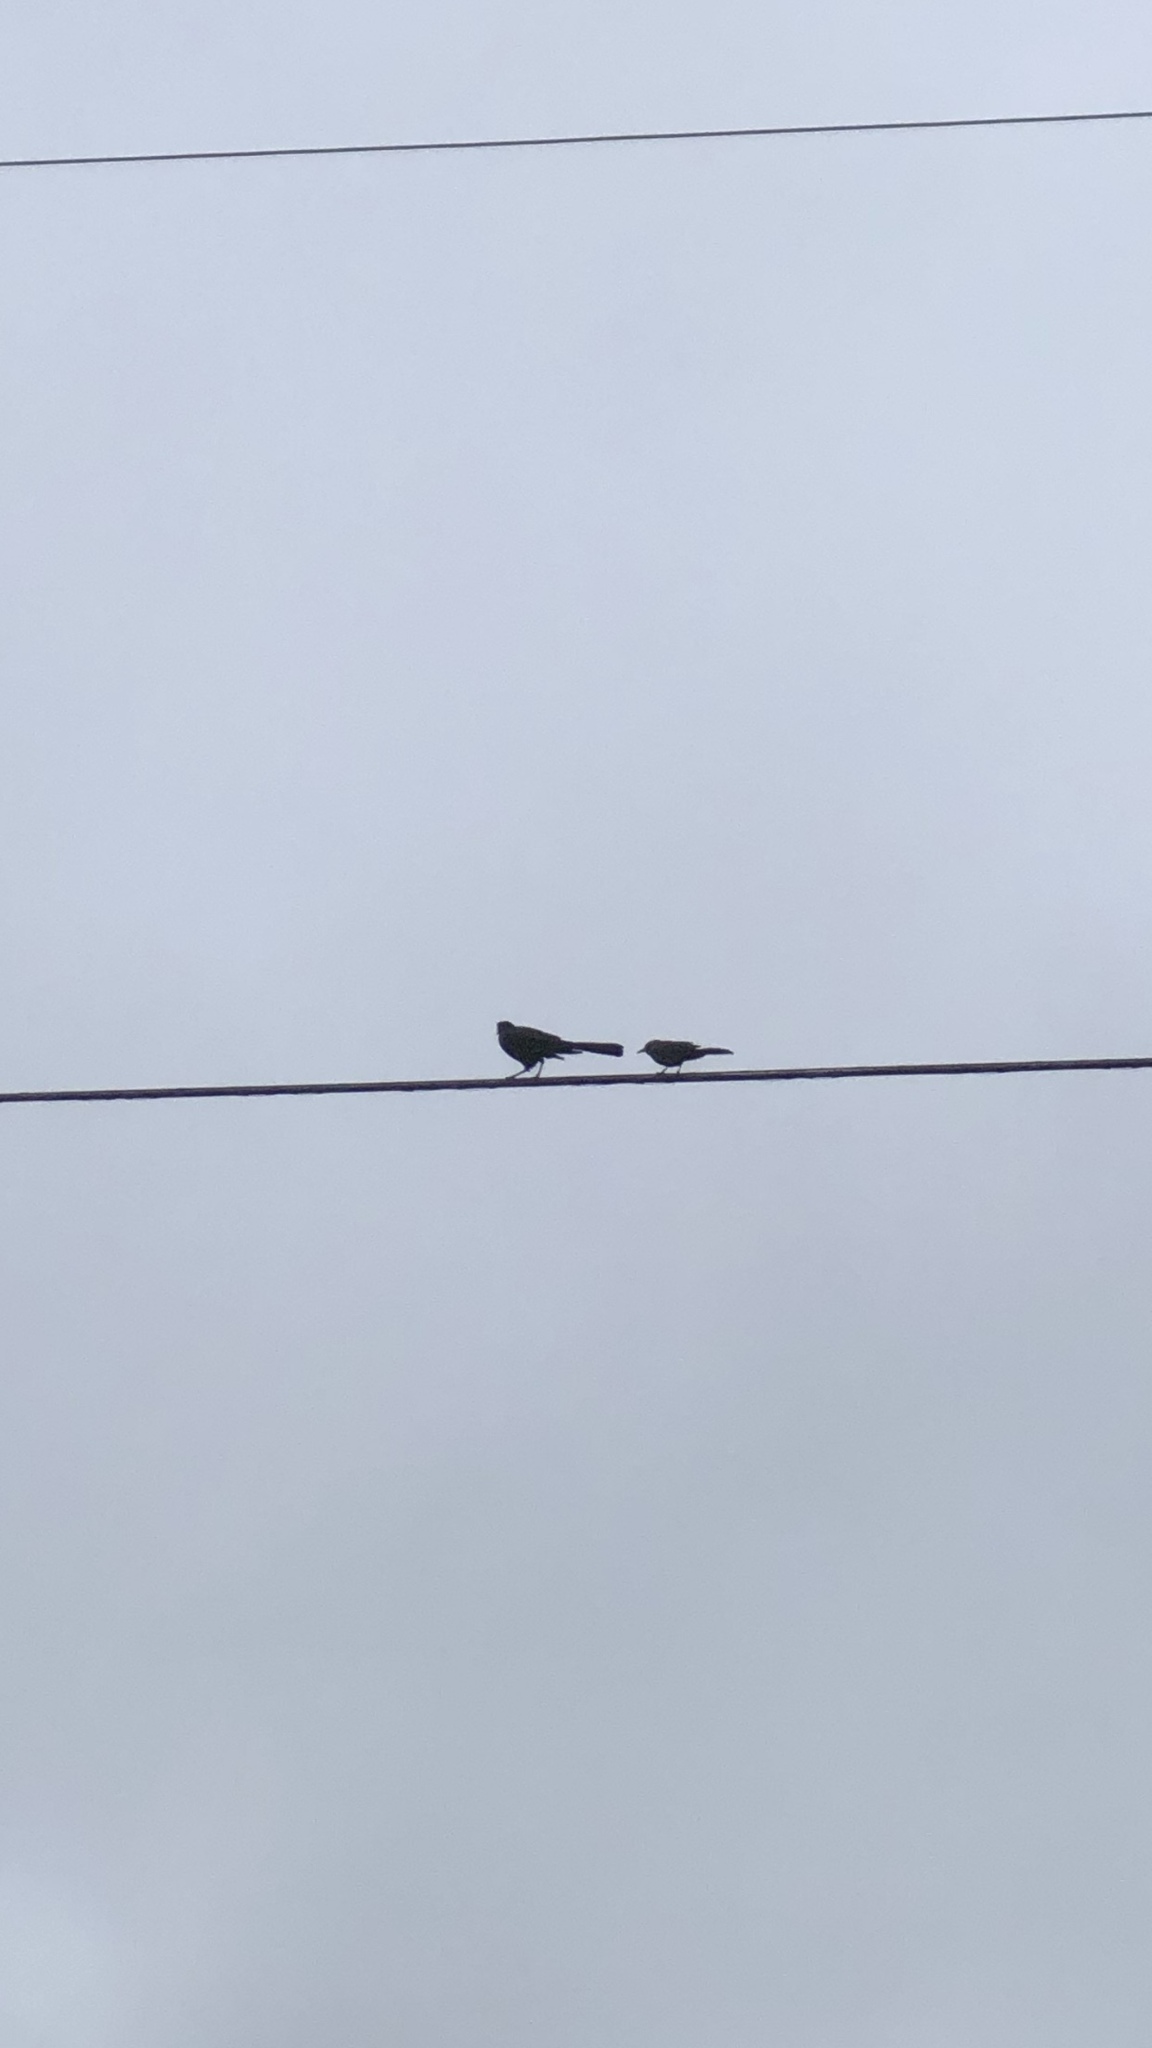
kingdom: Animalia
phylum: Chordata
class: Aves
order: Passeriformes
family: Icteridae
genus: Quiscalus
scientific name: Quiscalus mexicanus
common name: Great-tailed grackle
